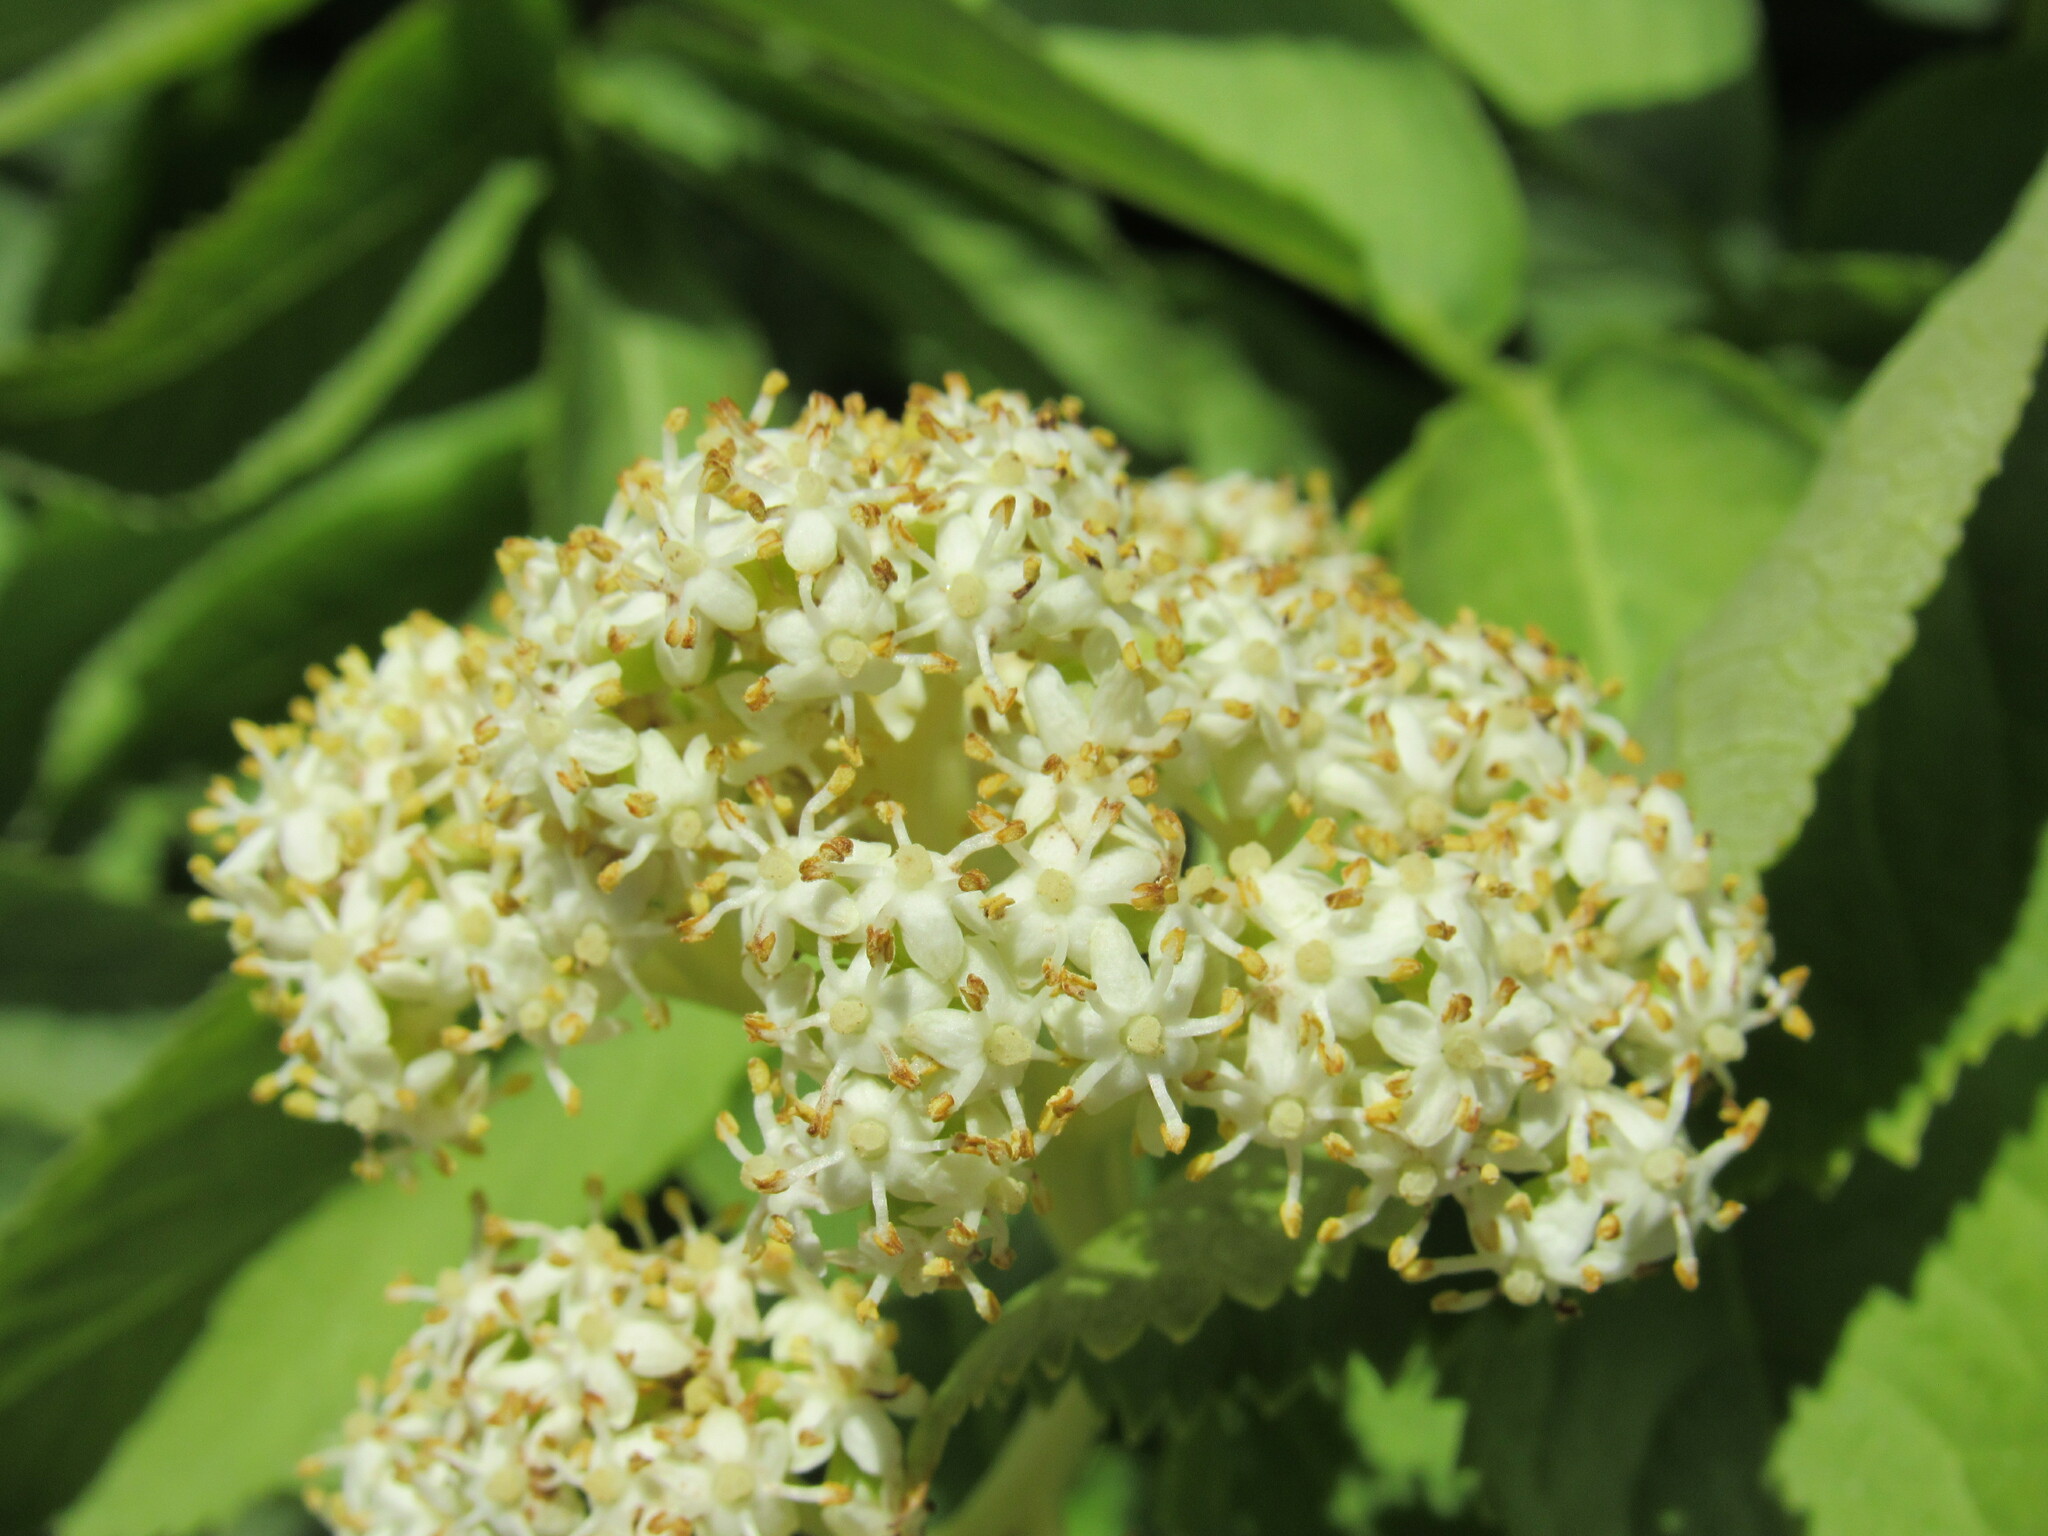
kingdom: Plantae
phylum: Tracheophyta
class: Magnoliopsida
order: Dipsacales
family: Viburnaceae
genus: Sambucus
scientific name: Sambucus racemosa
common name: Red-berried elder
